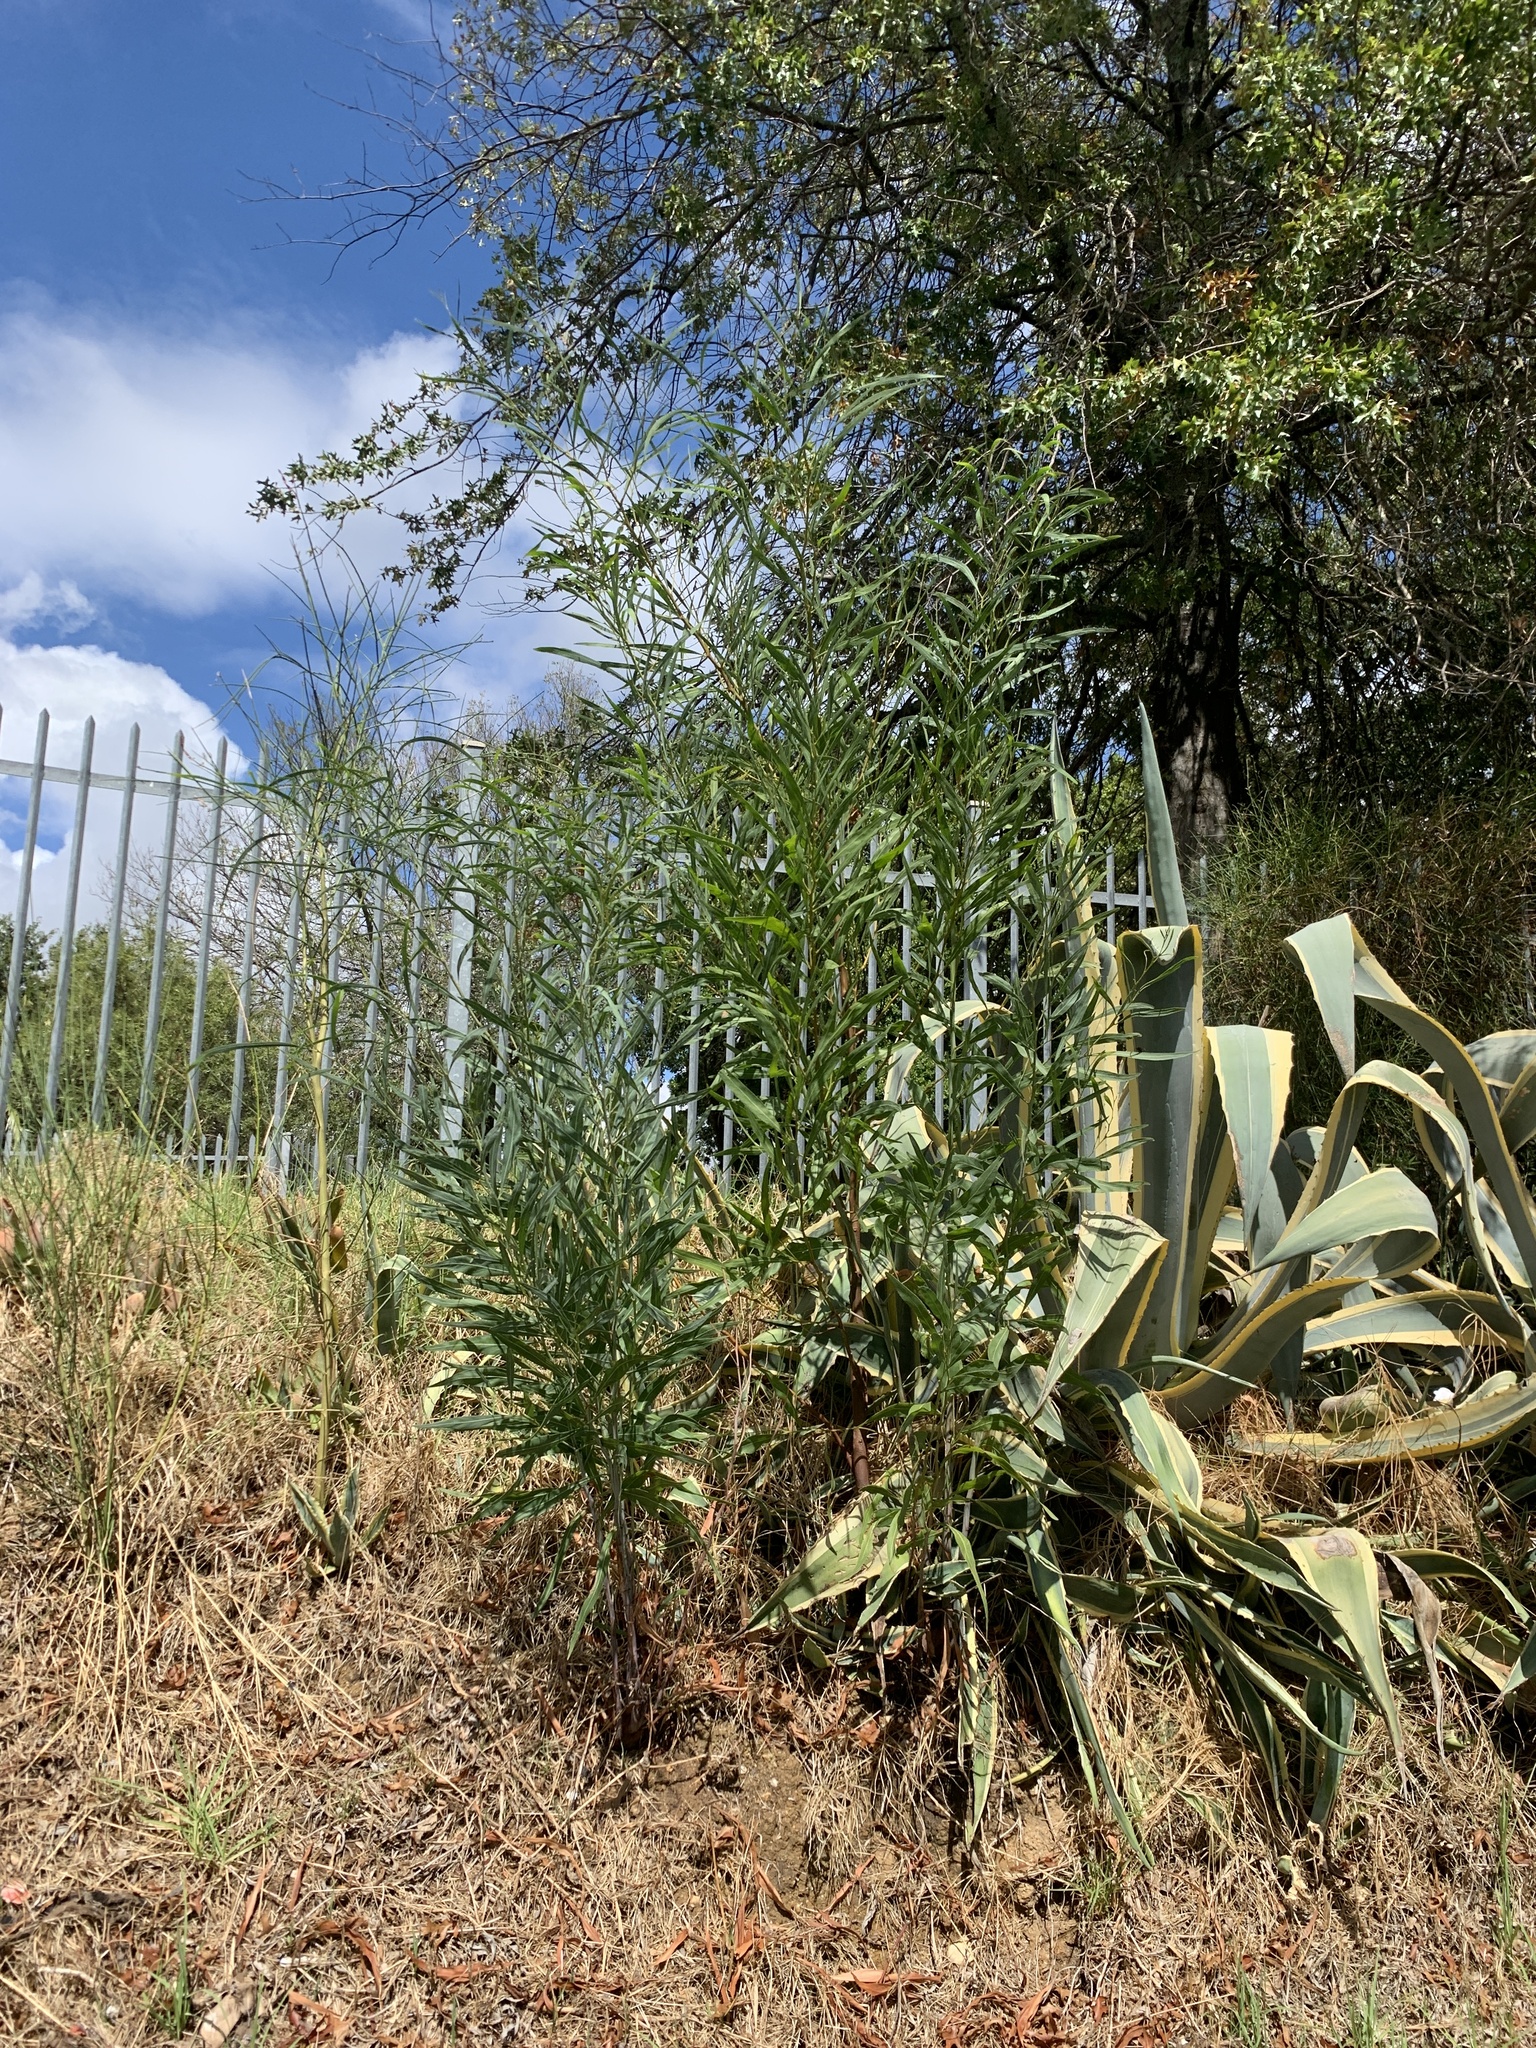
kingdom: Plantae
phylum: Tracheophyta
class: Magnoliopsida
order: Fabales
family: Fabaceae
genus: Acacia
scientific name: Acacia saligna
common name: Orange wattle
